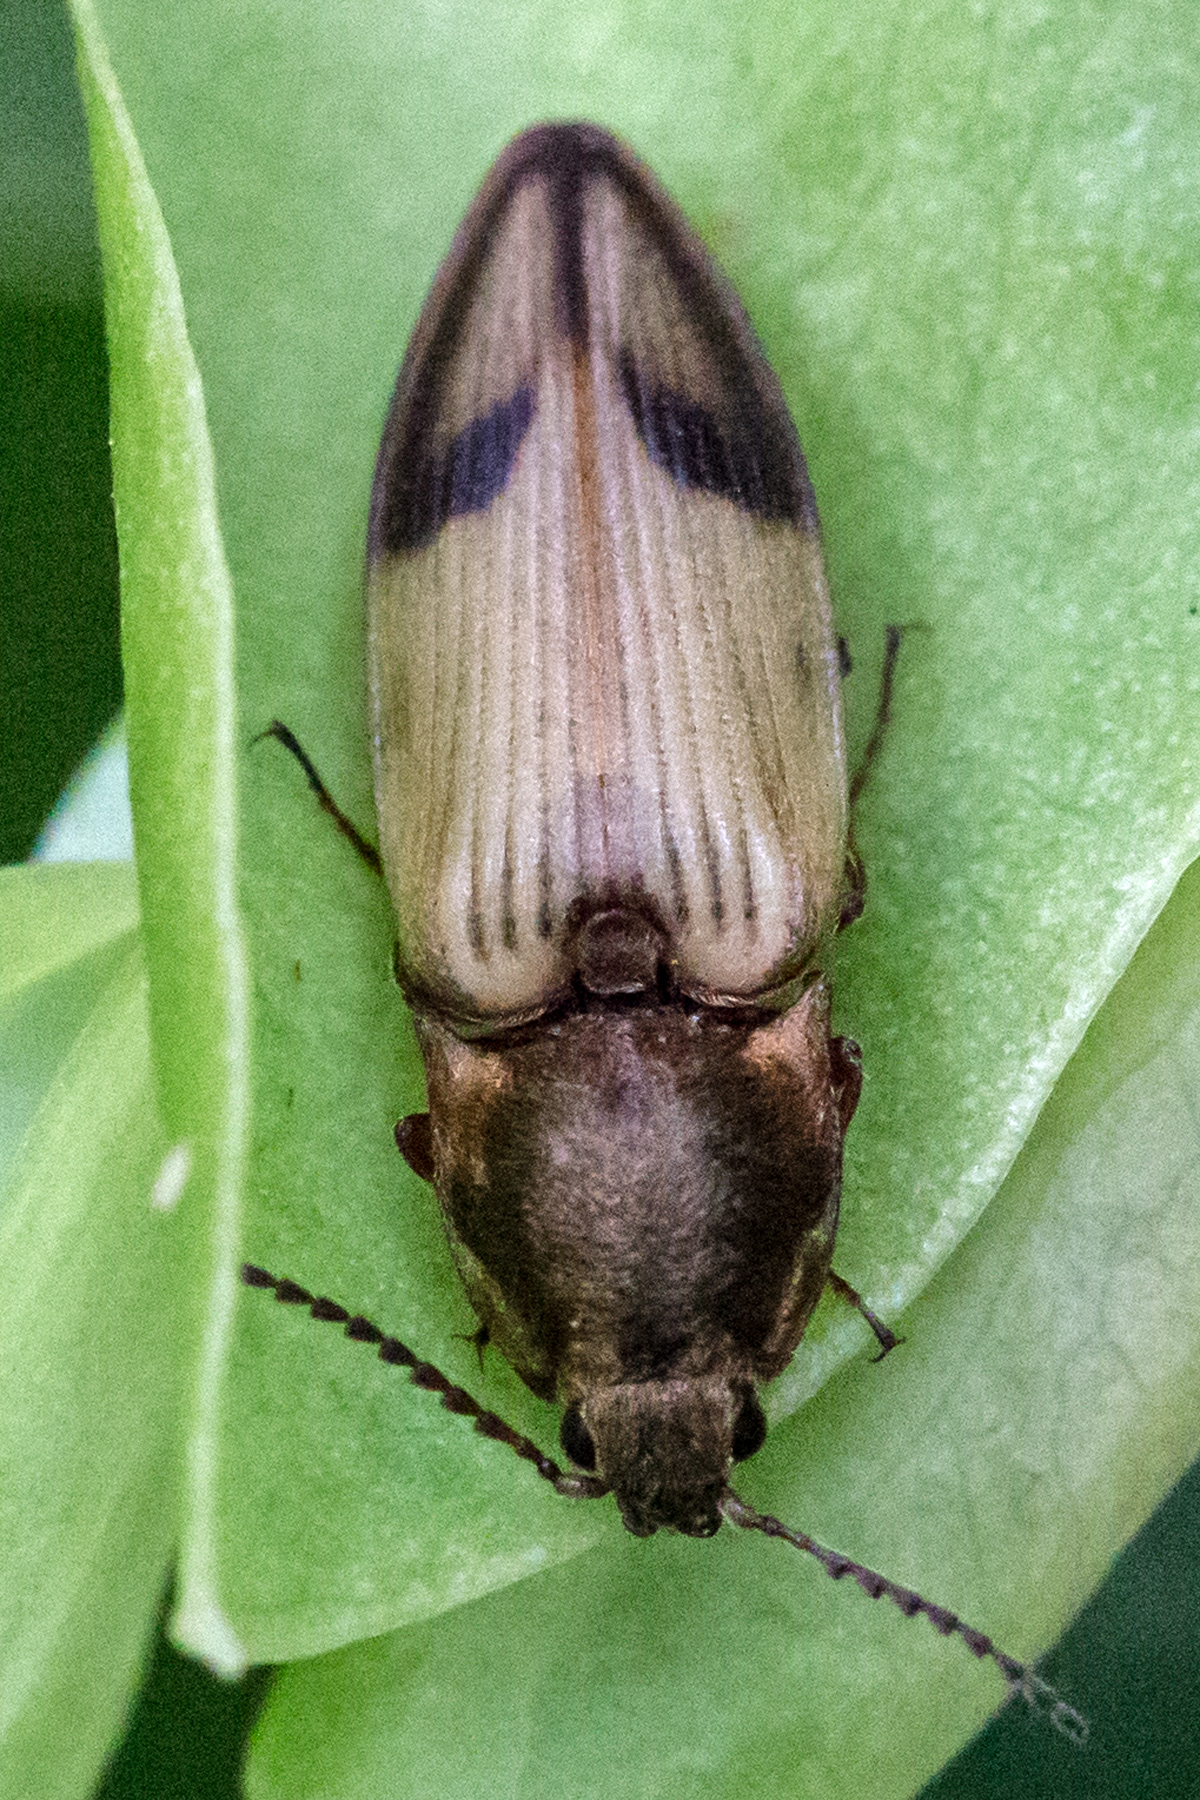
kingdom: Animalia
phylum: Arthropoda
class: Insecta
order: Coleoptera
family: Elateridae
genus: Stropenron
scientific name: Stropenron hamata
